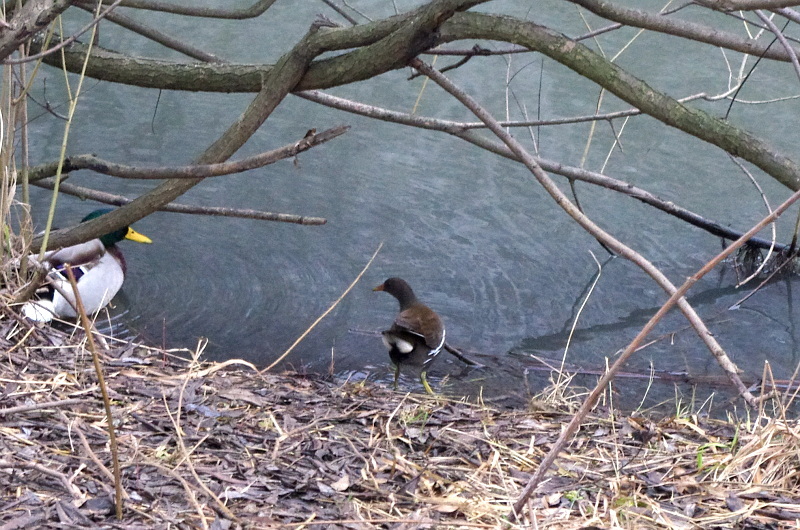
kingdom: Animalia
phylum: Chordata
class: Aves
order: Gruiformes
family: Rallidae
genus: Gallinula
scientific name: Gallinula chloropus
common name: Common moorhen
